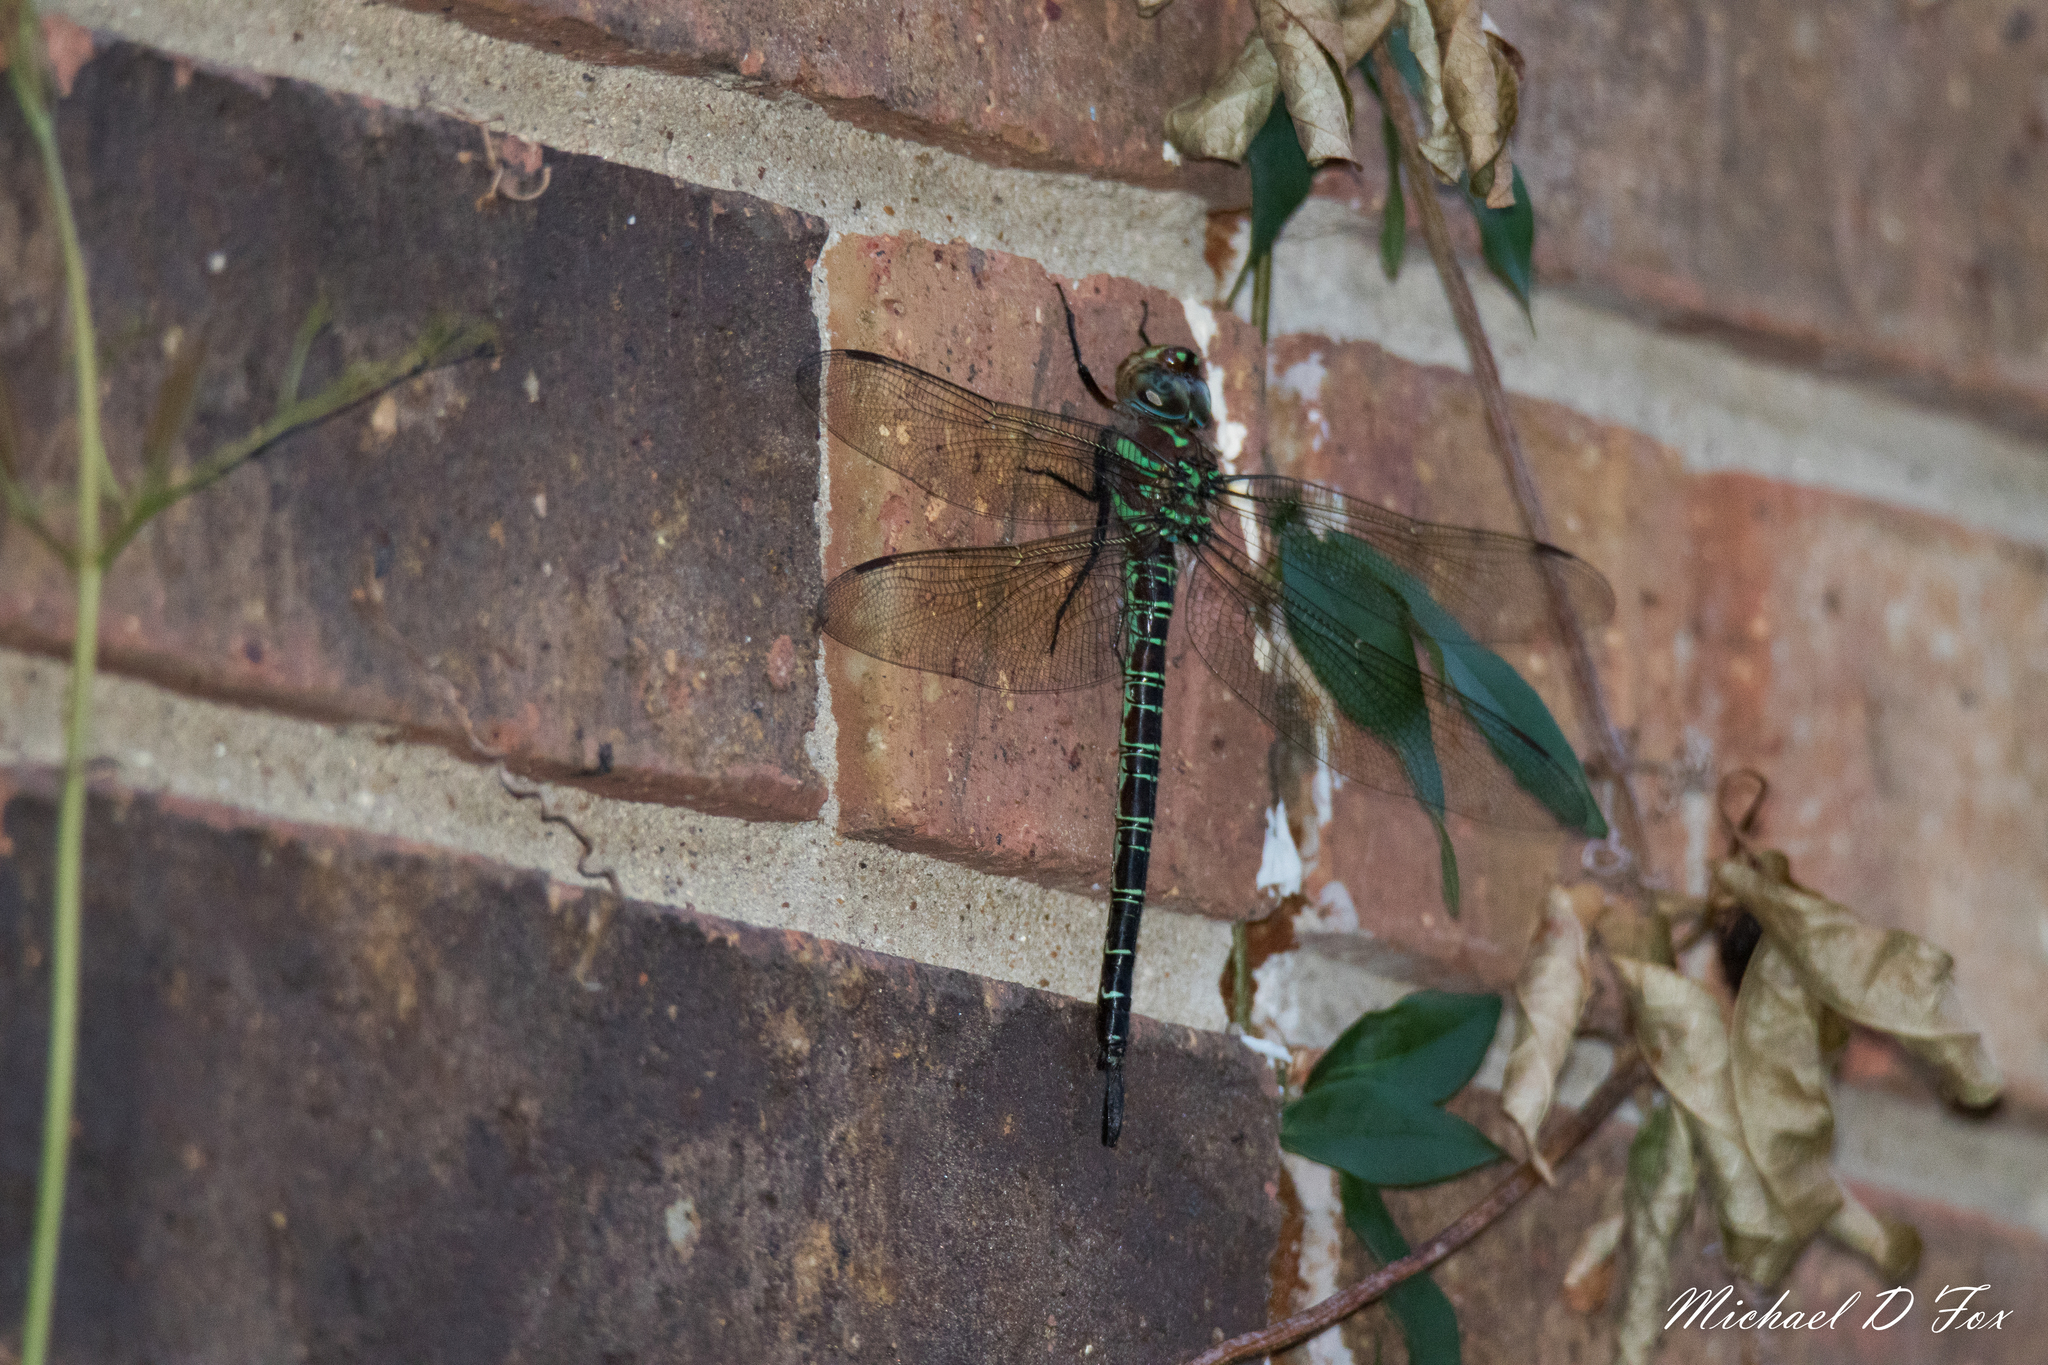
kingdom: Animalia
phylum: Arthropoda
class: Insecta
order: Odonata
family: Aeshnidae
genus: Epiaeschna
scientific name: Epiaeschna heros
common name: Swamp darner
